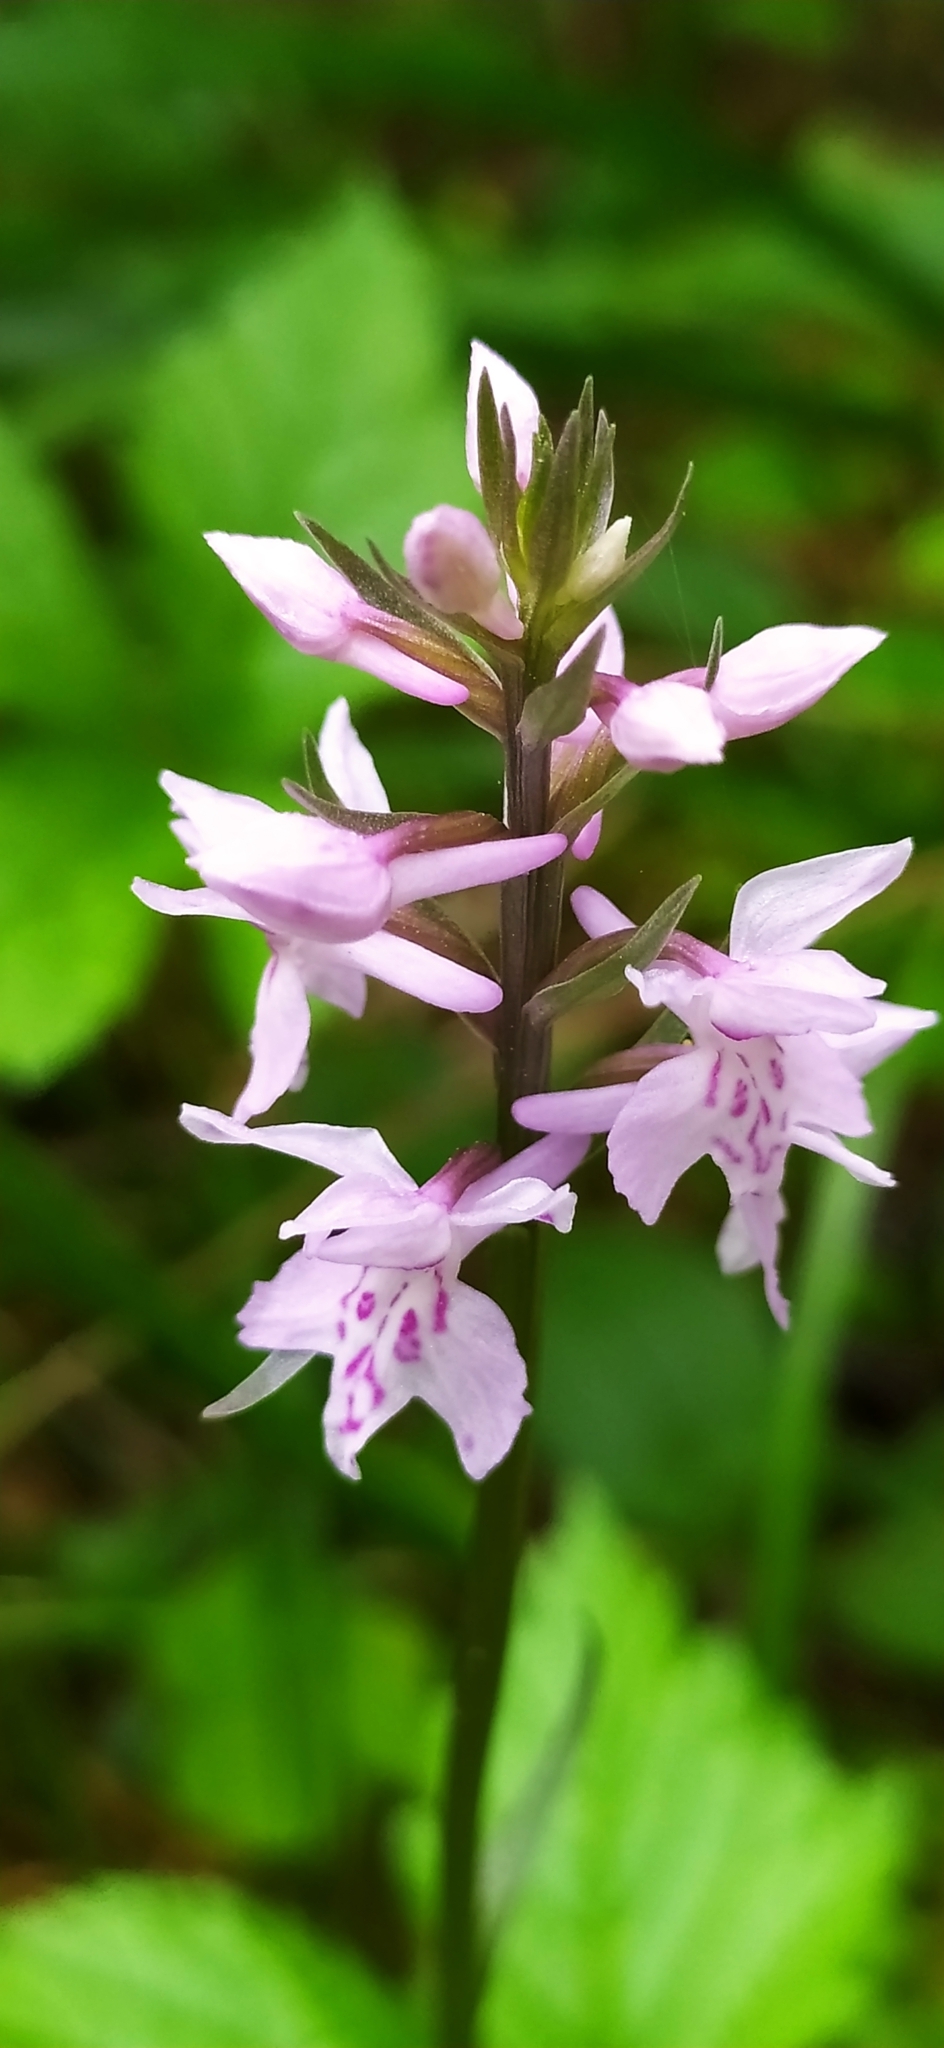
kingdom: Plantae
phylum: Tracheophyta
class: Liliopsida
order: Asparagales
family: Orchidaceae
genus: Dactylorhiza
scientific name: Dactylorhiza maculata
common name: Heath spotted-orchid
